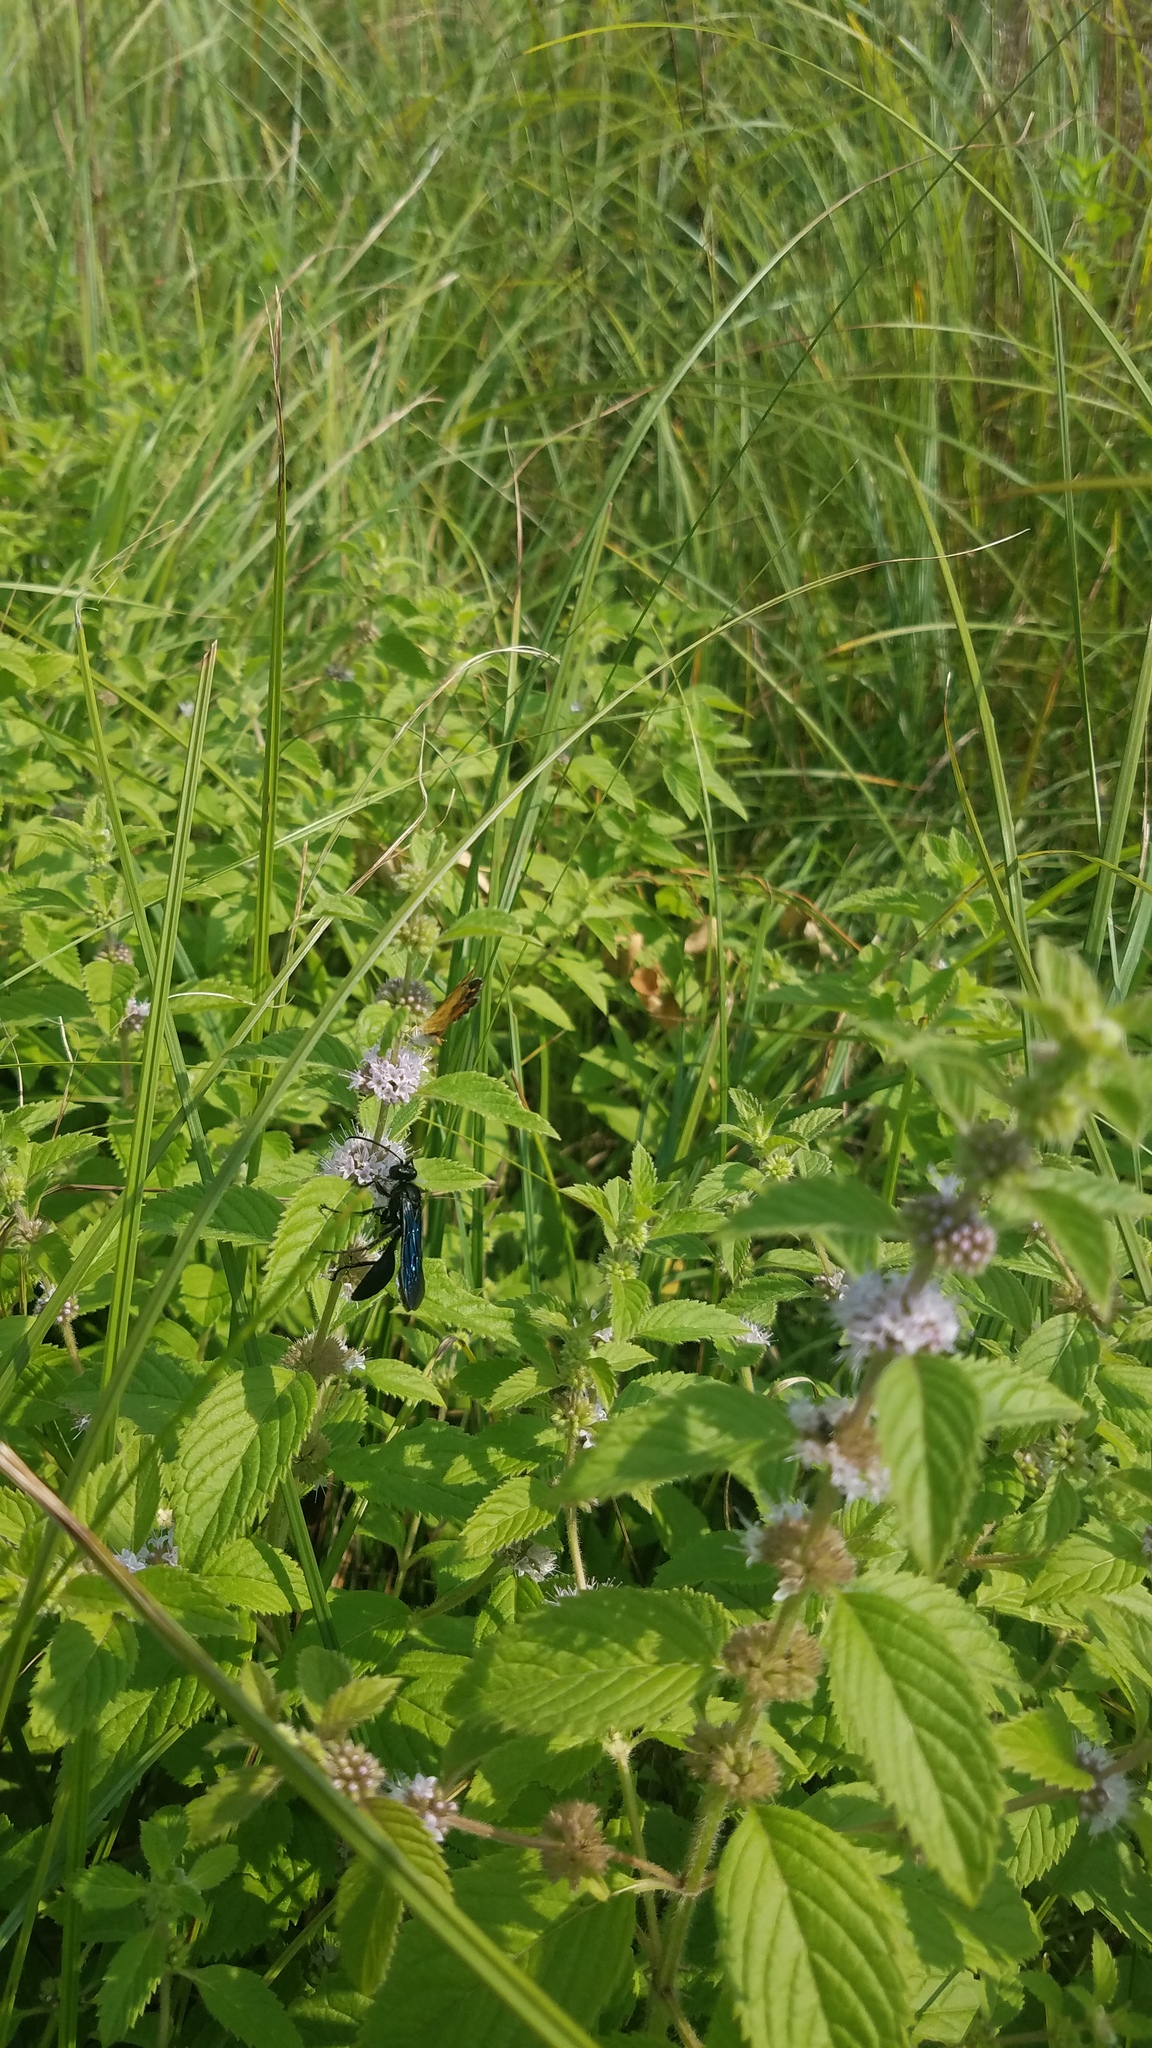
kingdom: Animalia
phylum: Arthropoda
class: Insecta
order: Hymenoptera
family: Sphecidae
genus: Sphex
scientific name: Sphex pensylvanicus
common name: Great black digger wasp
